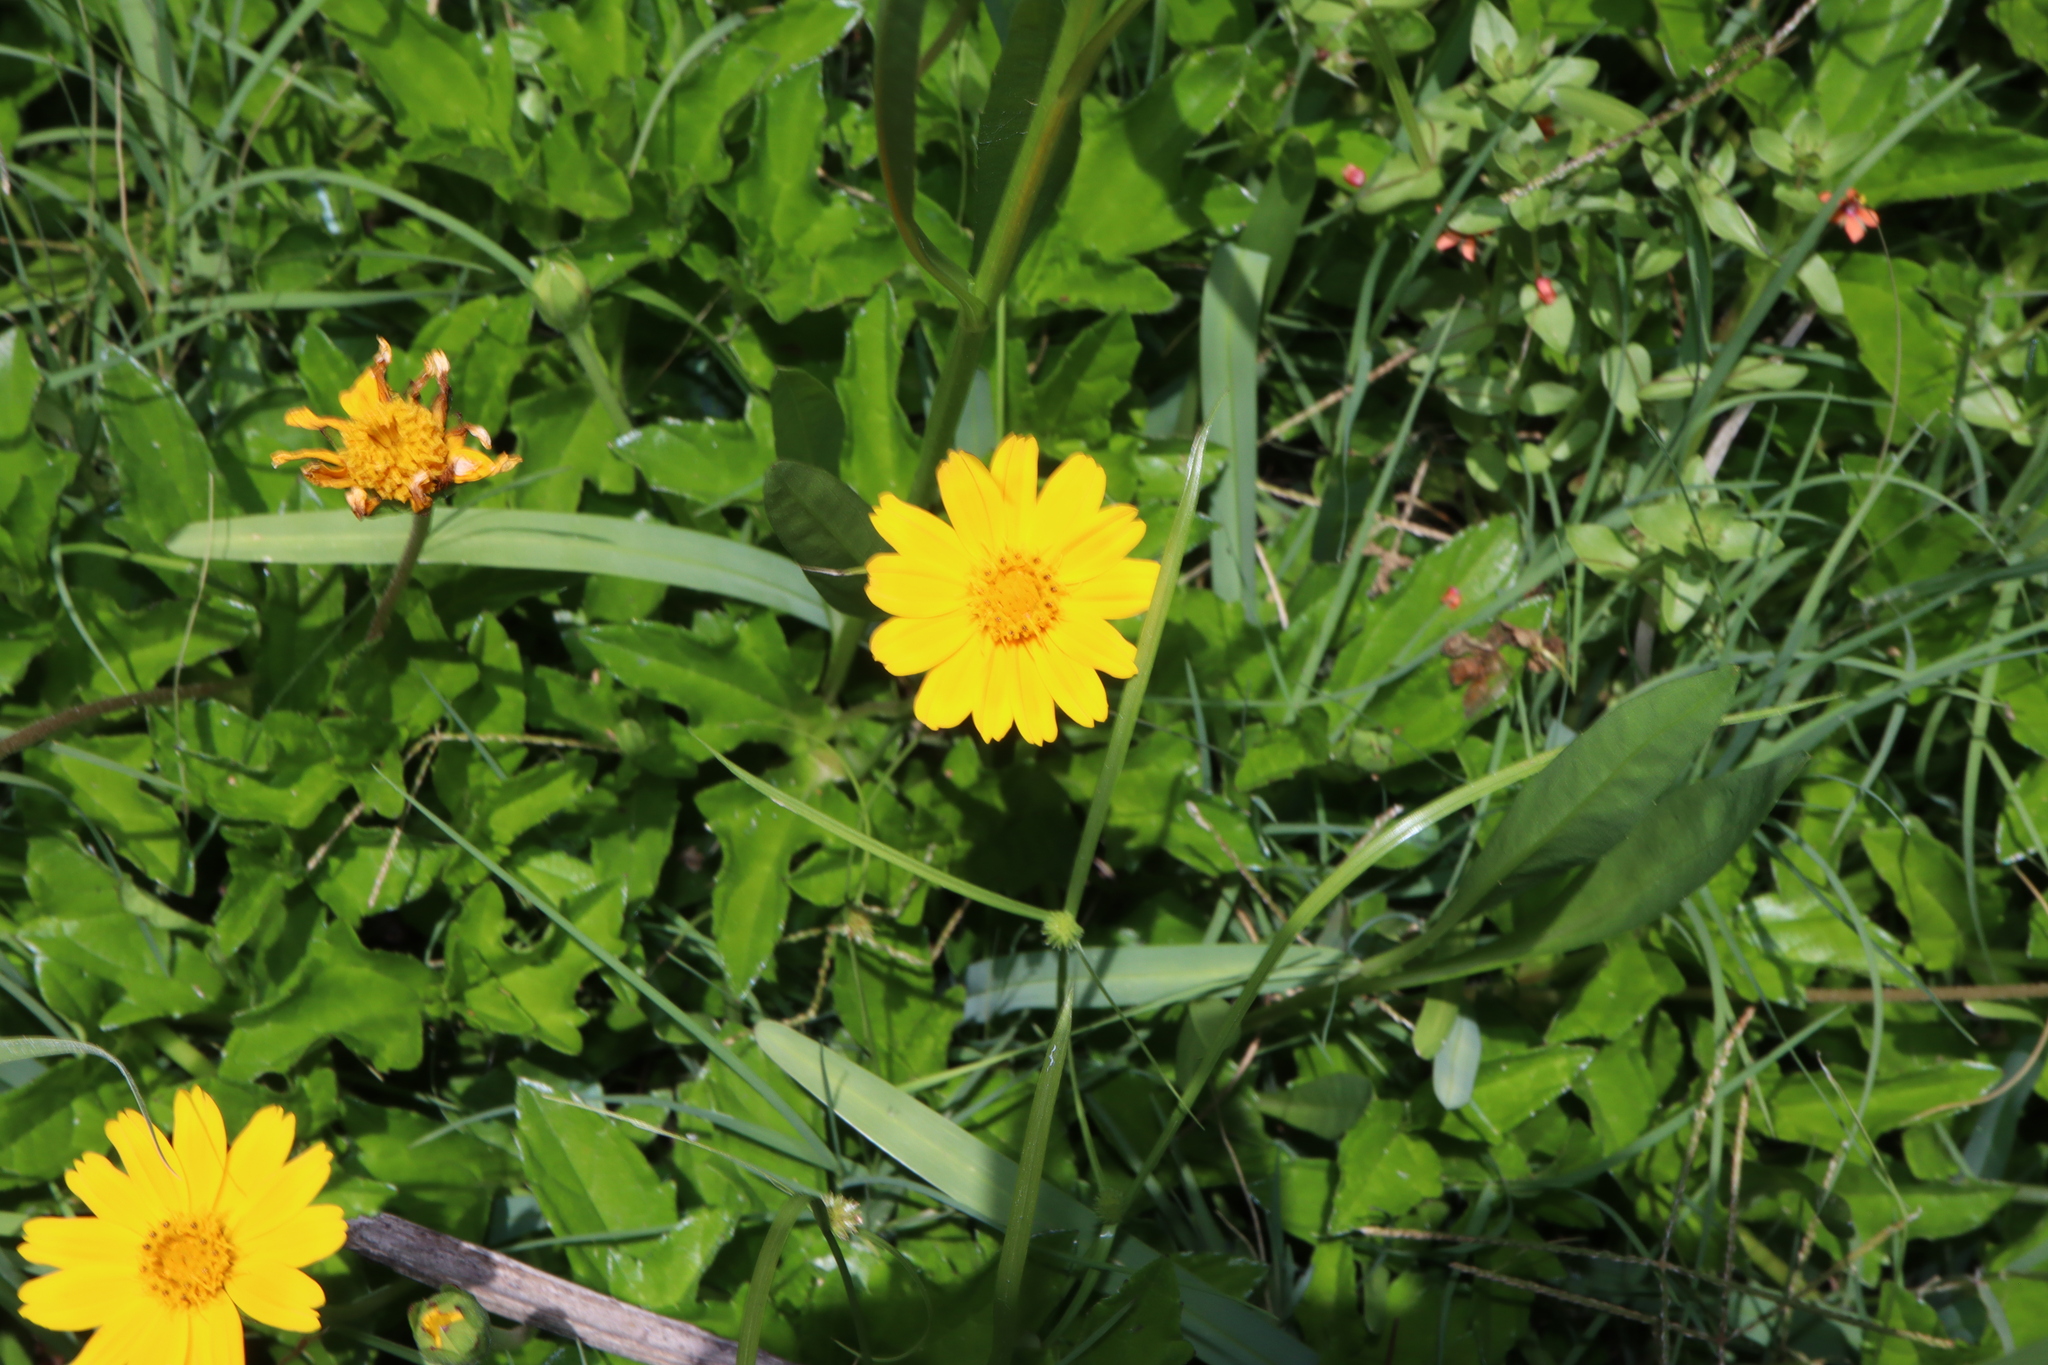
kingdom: Plantae
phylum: Tracheophyta
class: Magnoliopsida
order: Asterales
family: Asteraceae
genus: Sphagneticola
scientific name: Sphagneticola trilobata
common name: Bay biscayne creeping-oxeye
